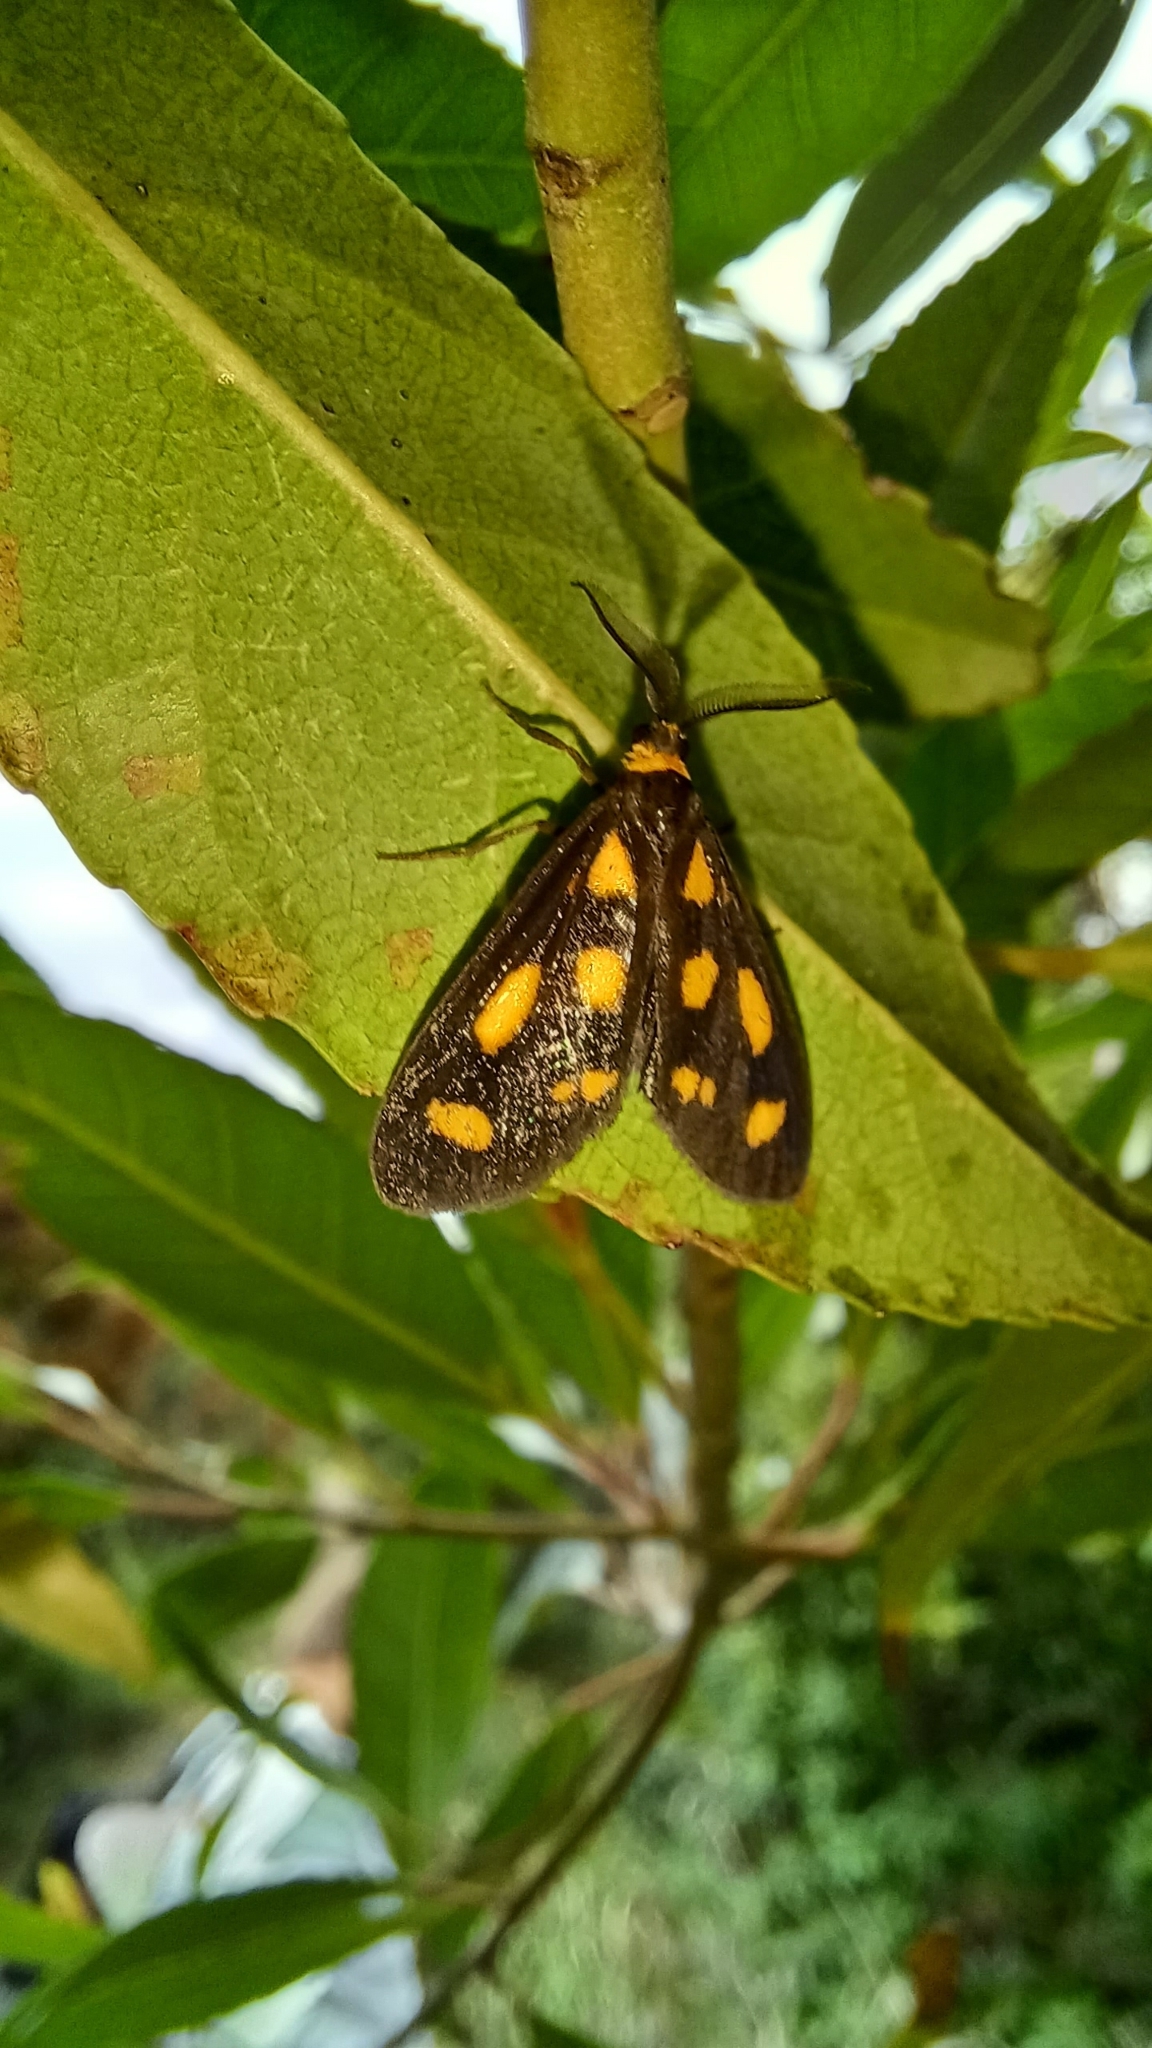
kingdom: Animalia
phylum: Arthropoda
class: Insecta
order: Lepidoptera
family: Erebidae
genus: Asura
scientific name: Asura cervicalis
